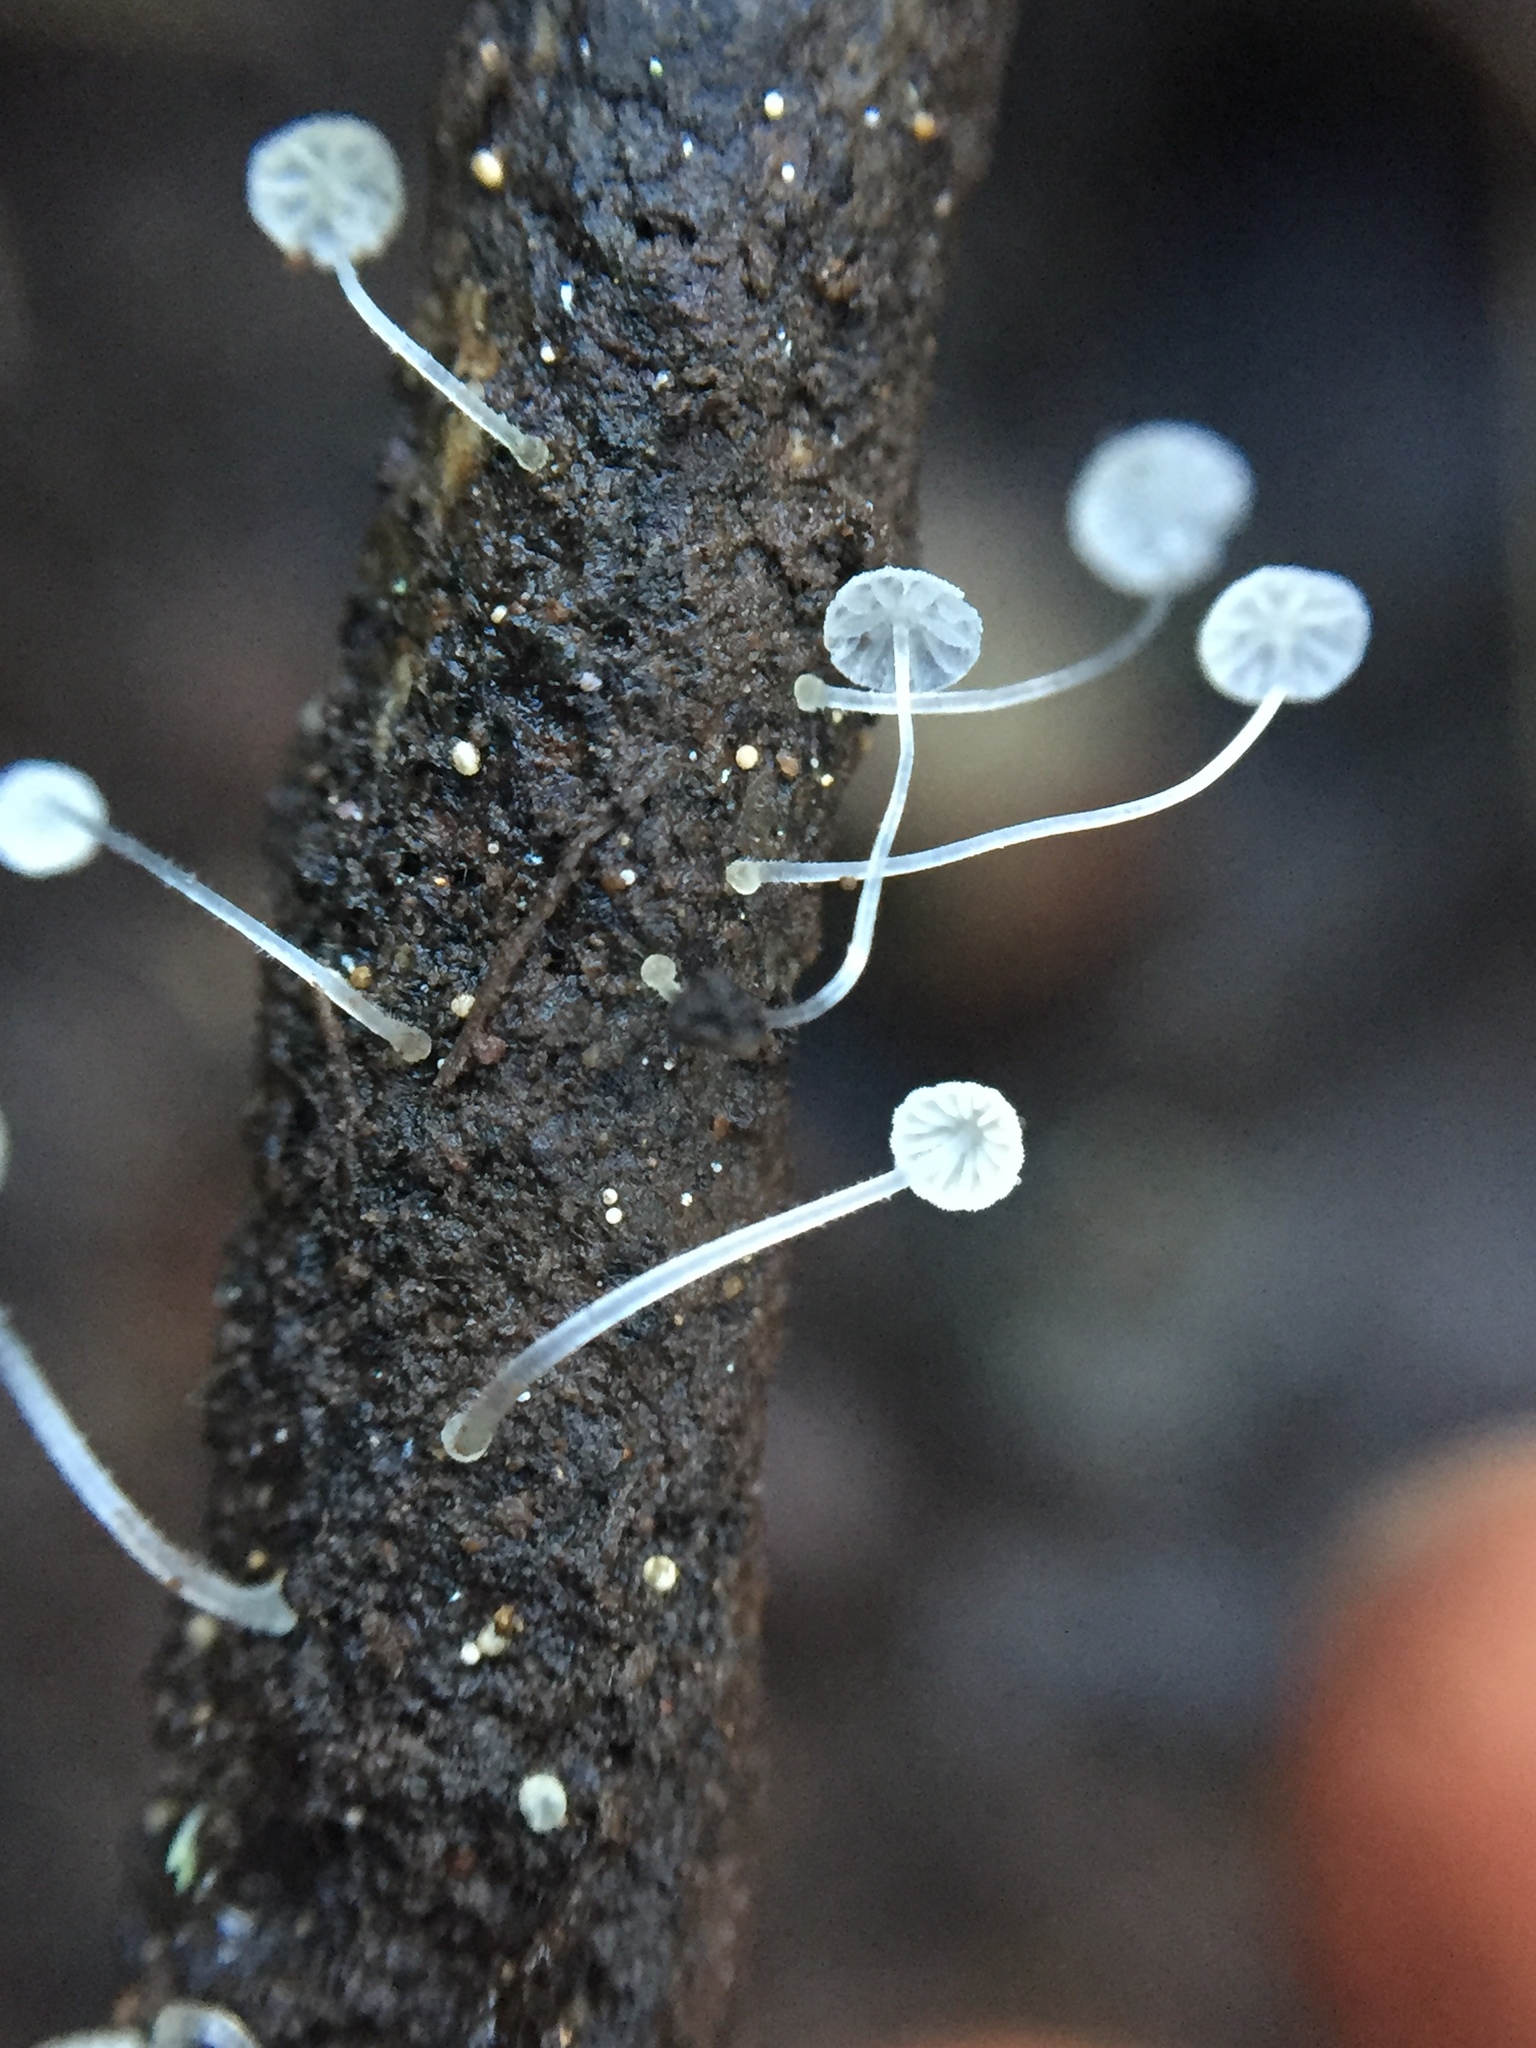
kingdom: Fungi
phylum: Basidiomycota
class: Agaricomycetes
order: Agaricales
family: Mycenaceae
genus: Mycena
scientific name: Mycena tenerrima
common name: Frosty bonnet
